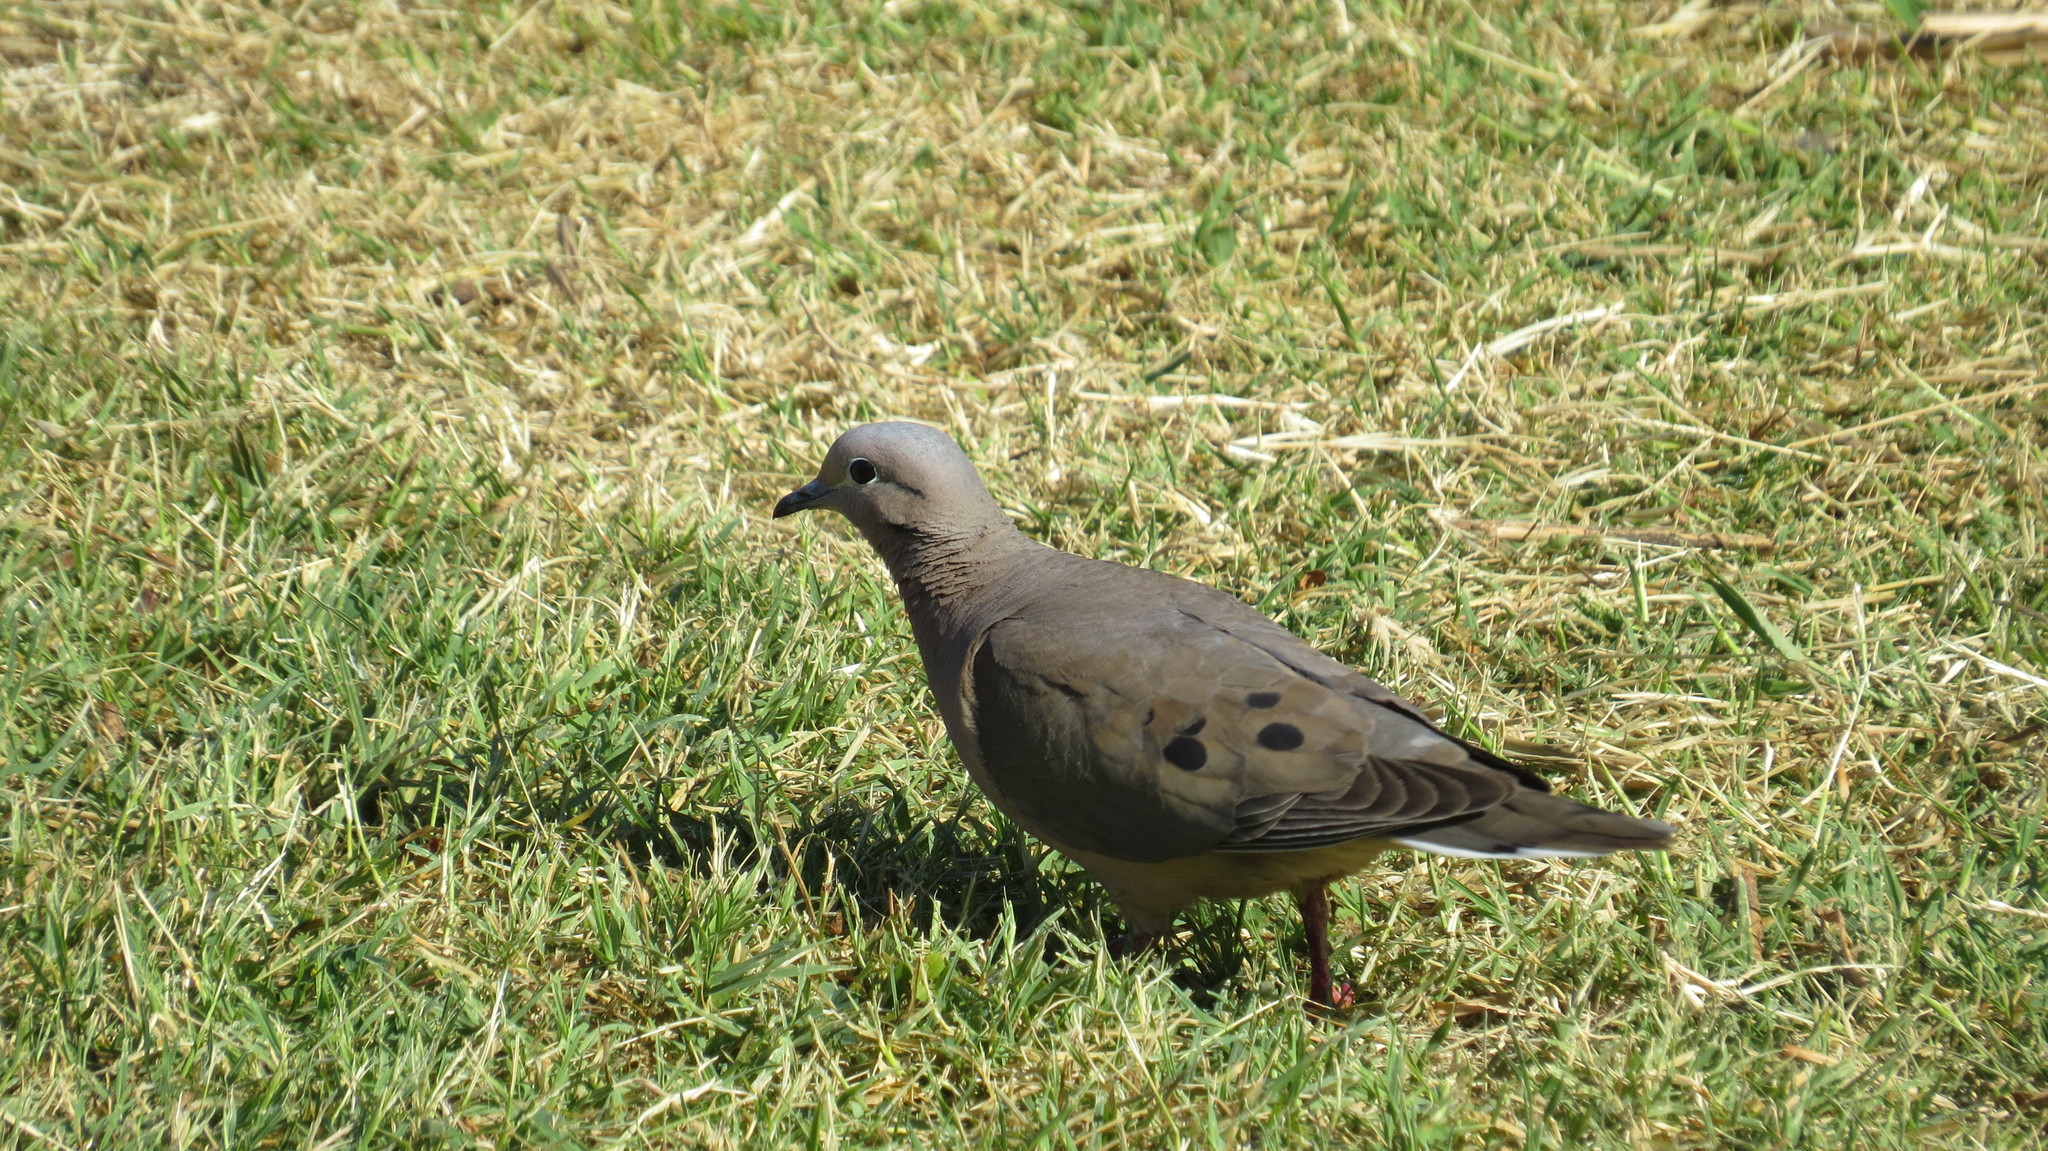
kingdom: Animalia
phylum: Chordata
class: Aves
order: Columbiformes
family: Columbidae
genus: Zenaida
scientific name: Zenaida auriculata
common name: Eared dove
